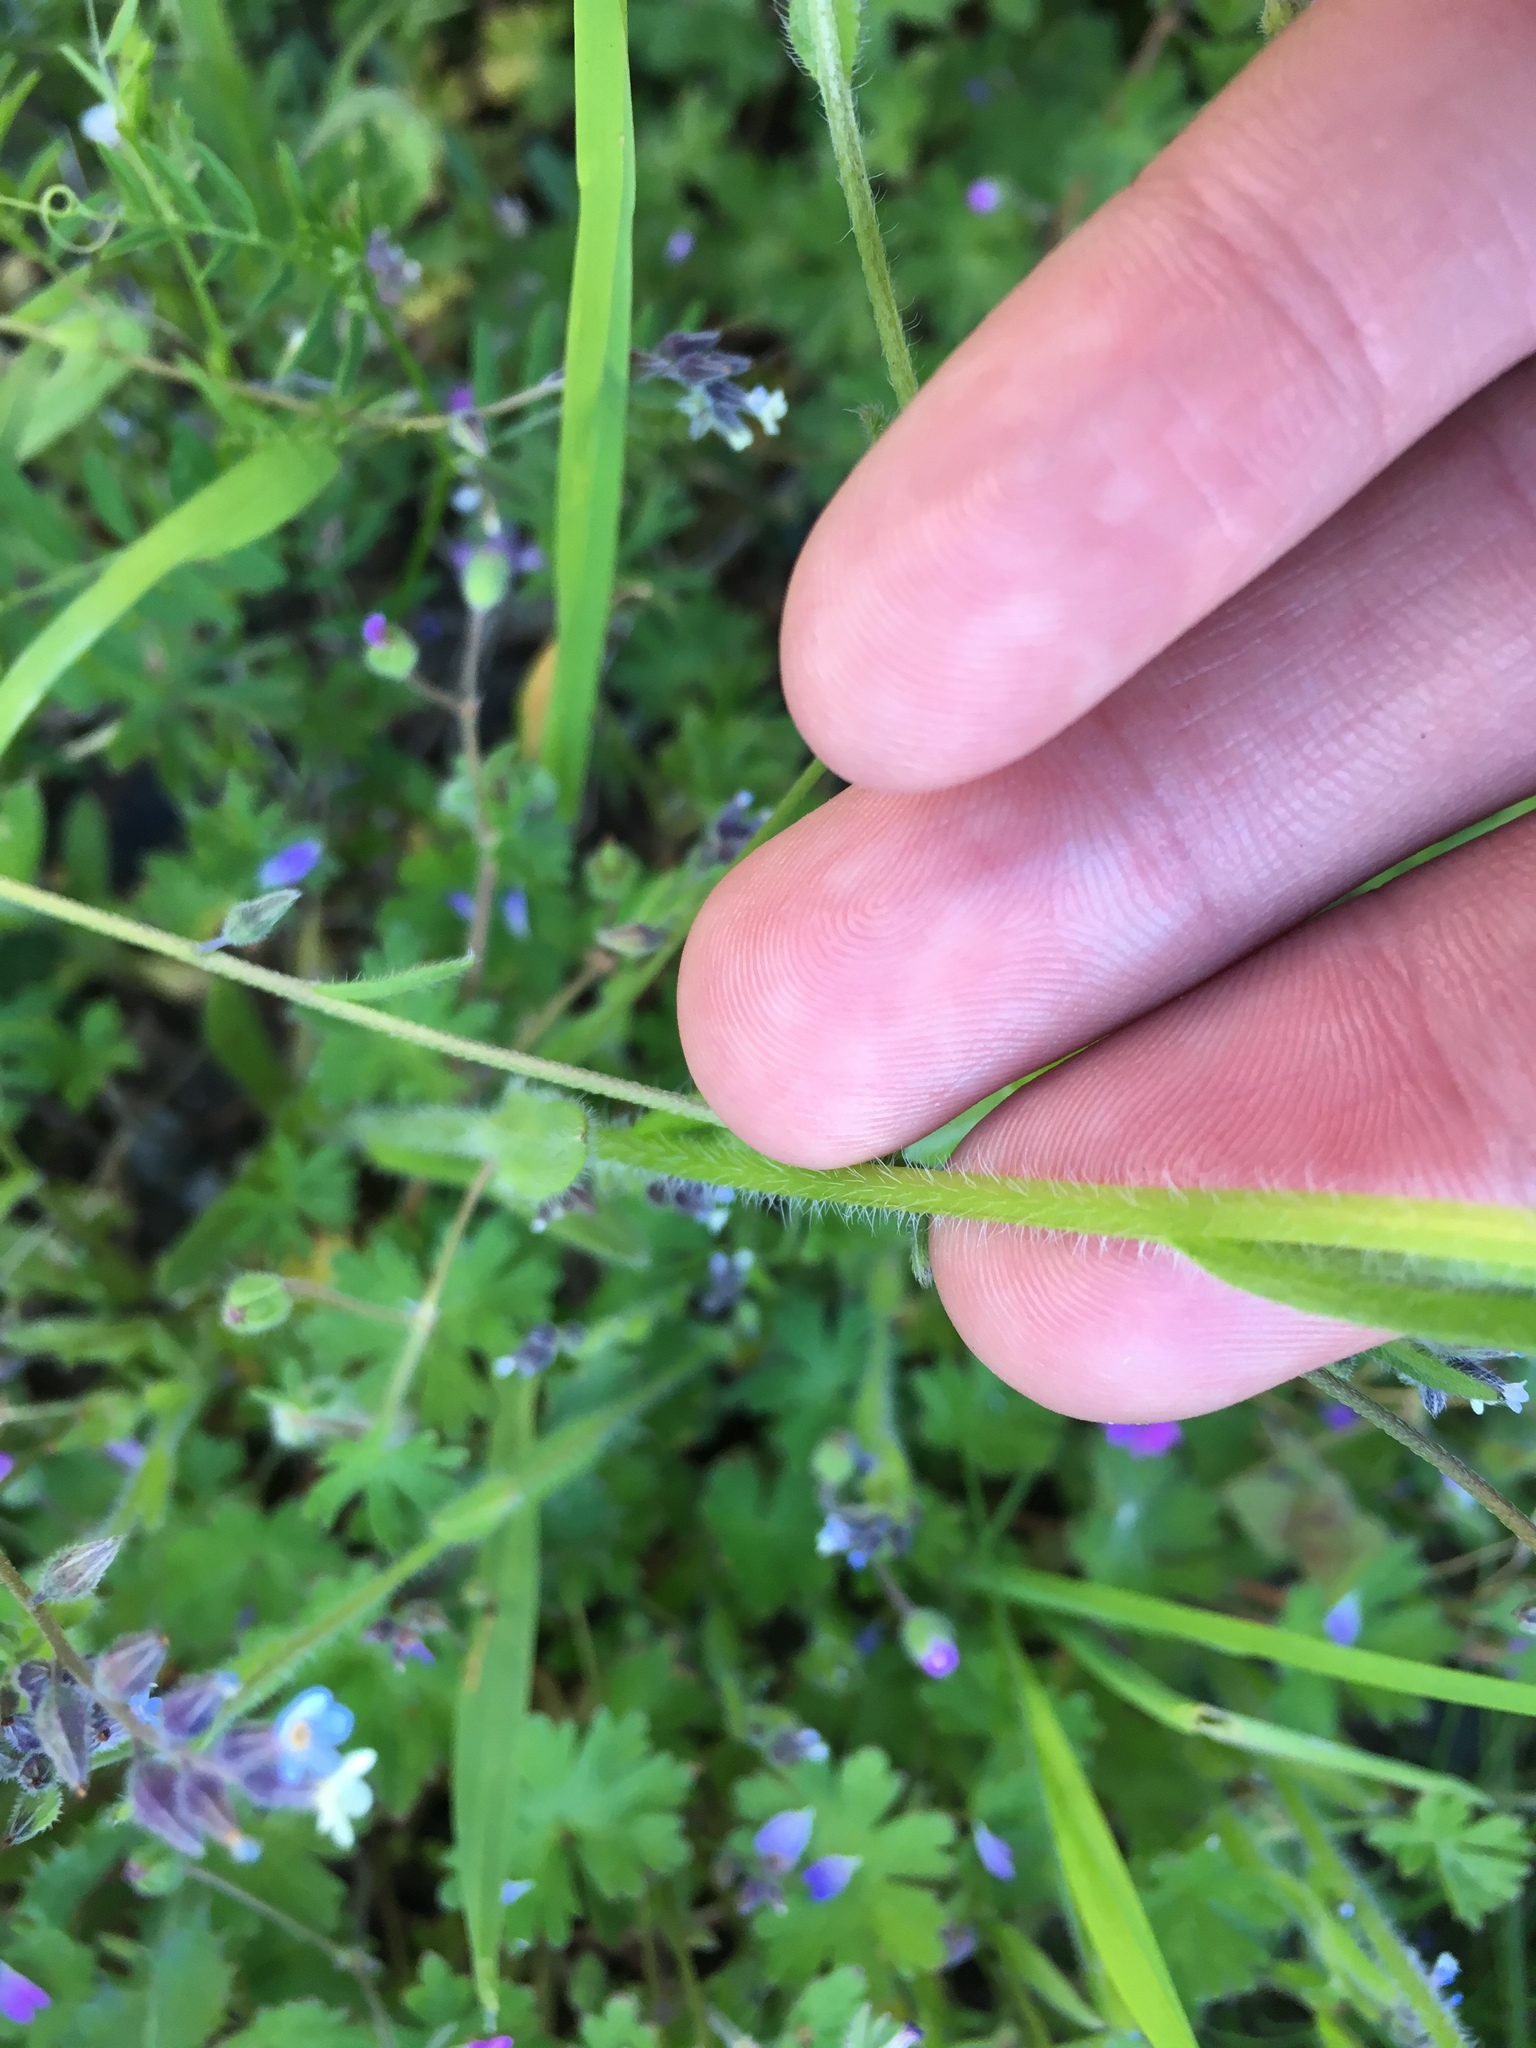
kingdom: Plantae
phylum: Tracheophyta
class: Magnoliopsida
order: Boraginales
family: Boraginaceae
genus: Myosotis
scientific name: Myosotis discolor
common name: Changing forget-me-not
